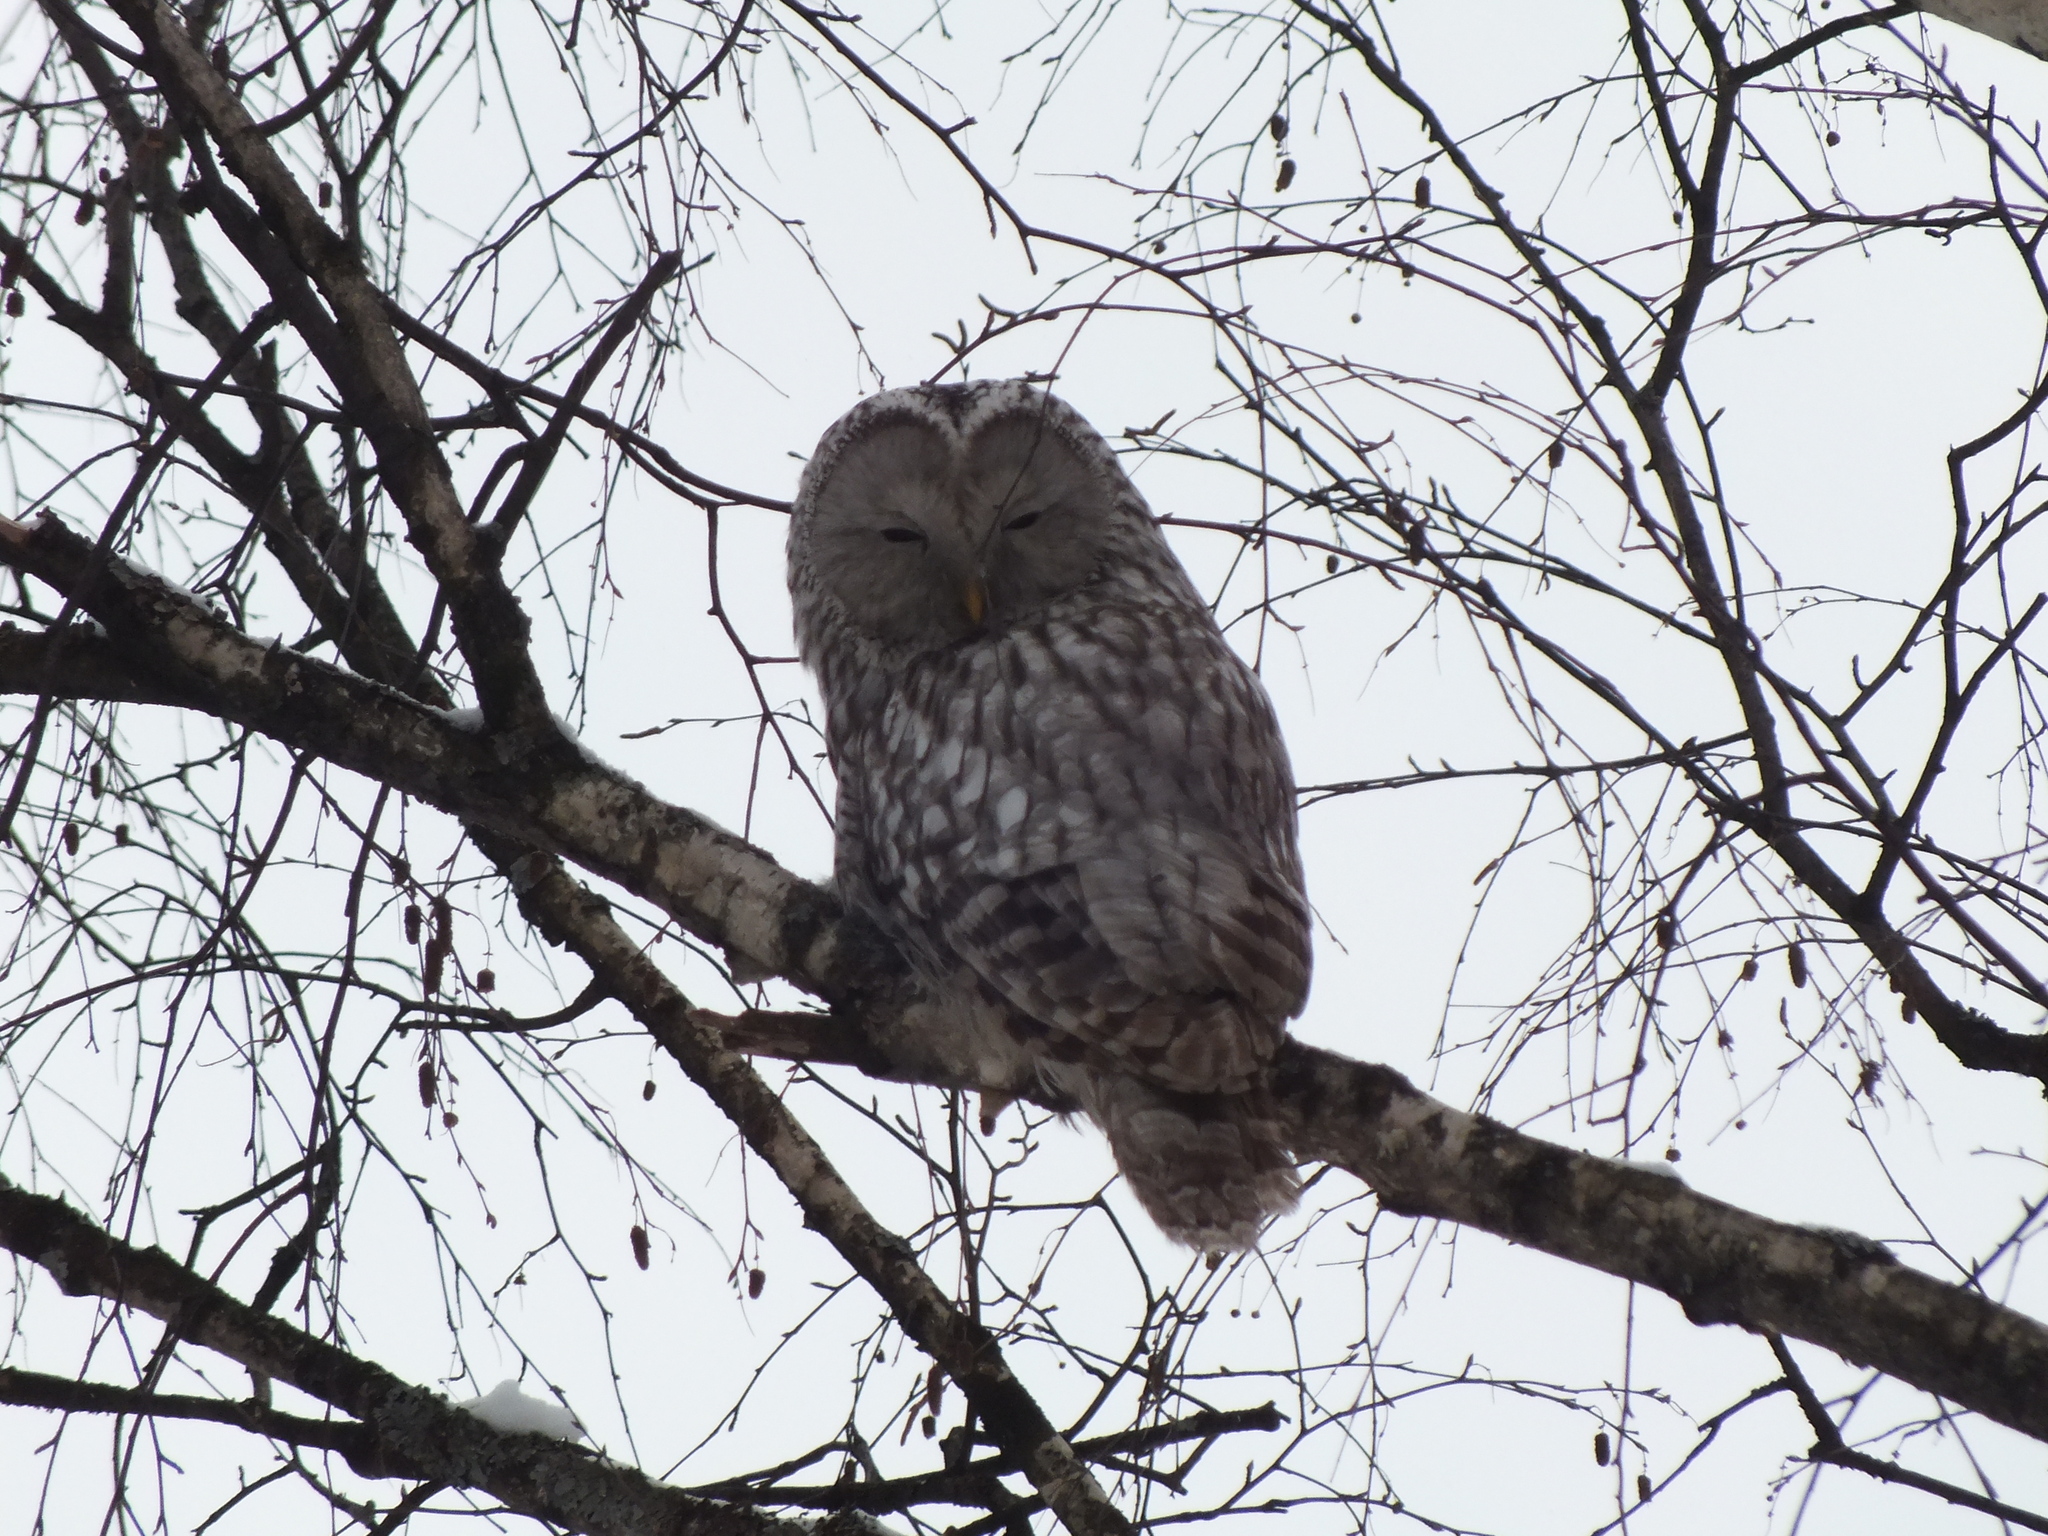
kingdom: Animalia
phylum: Chordata
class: Aves
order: Strigiformes
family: Strigidae
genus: Strix
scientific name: Strix uralensis
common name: Ural owl
